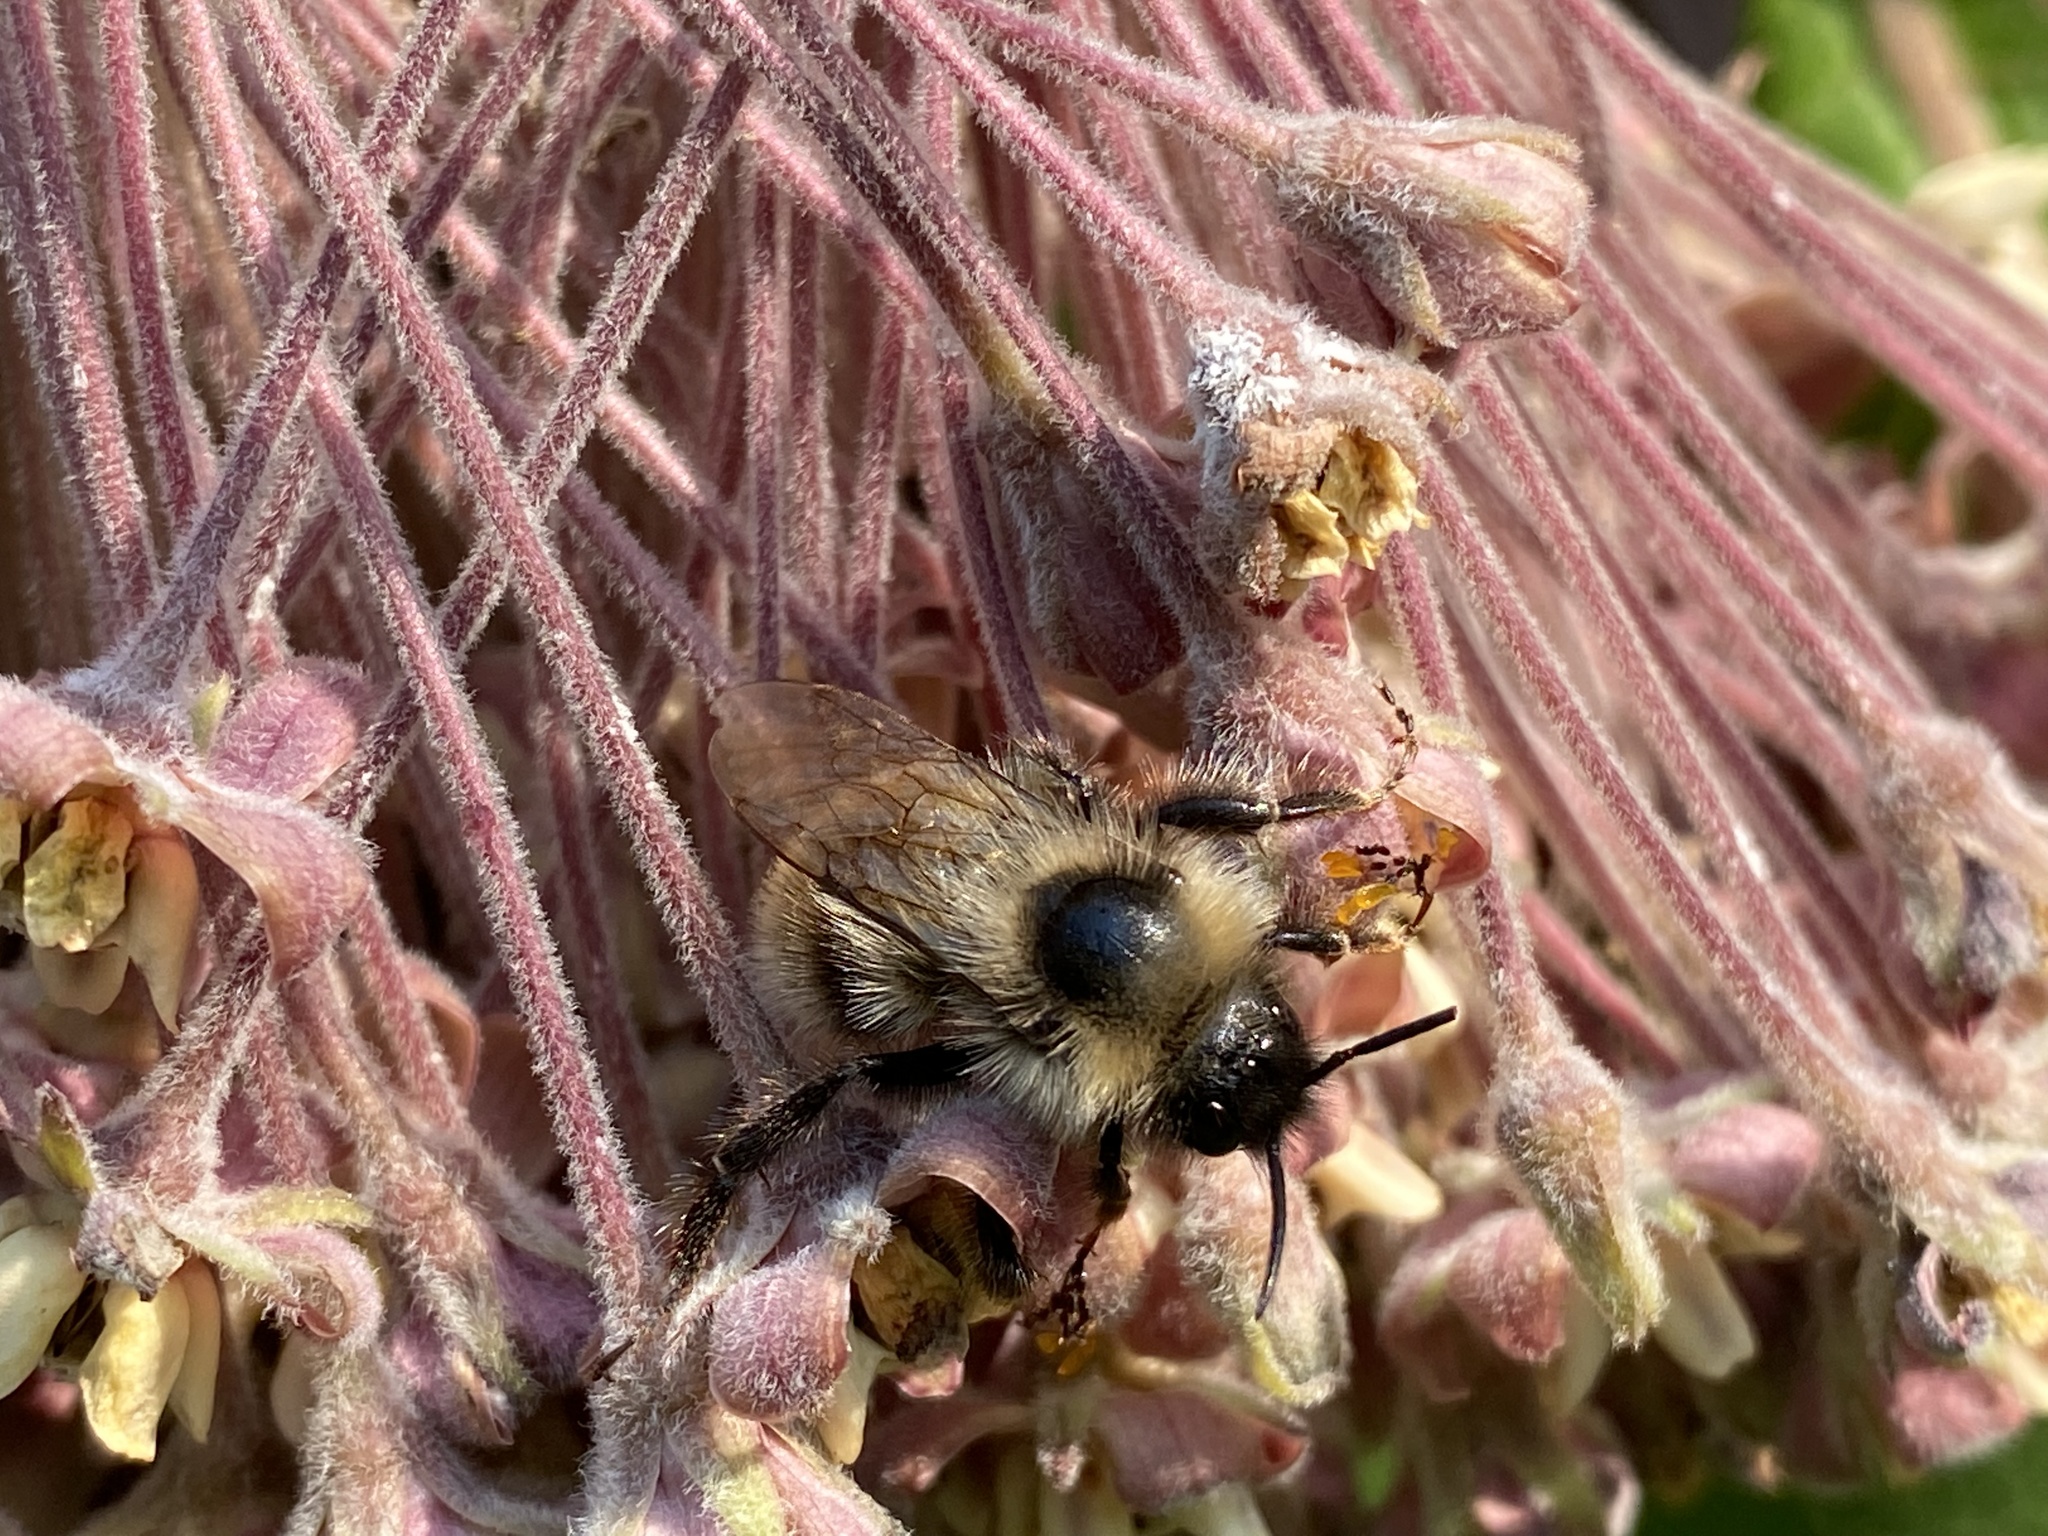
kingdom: Animalia
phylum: Arthropoda
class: Insecta
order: Hymenoptera
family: Apidae
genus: Bombus
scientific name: Bombus flavidus
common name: Fernald cuckoo bumble bee
